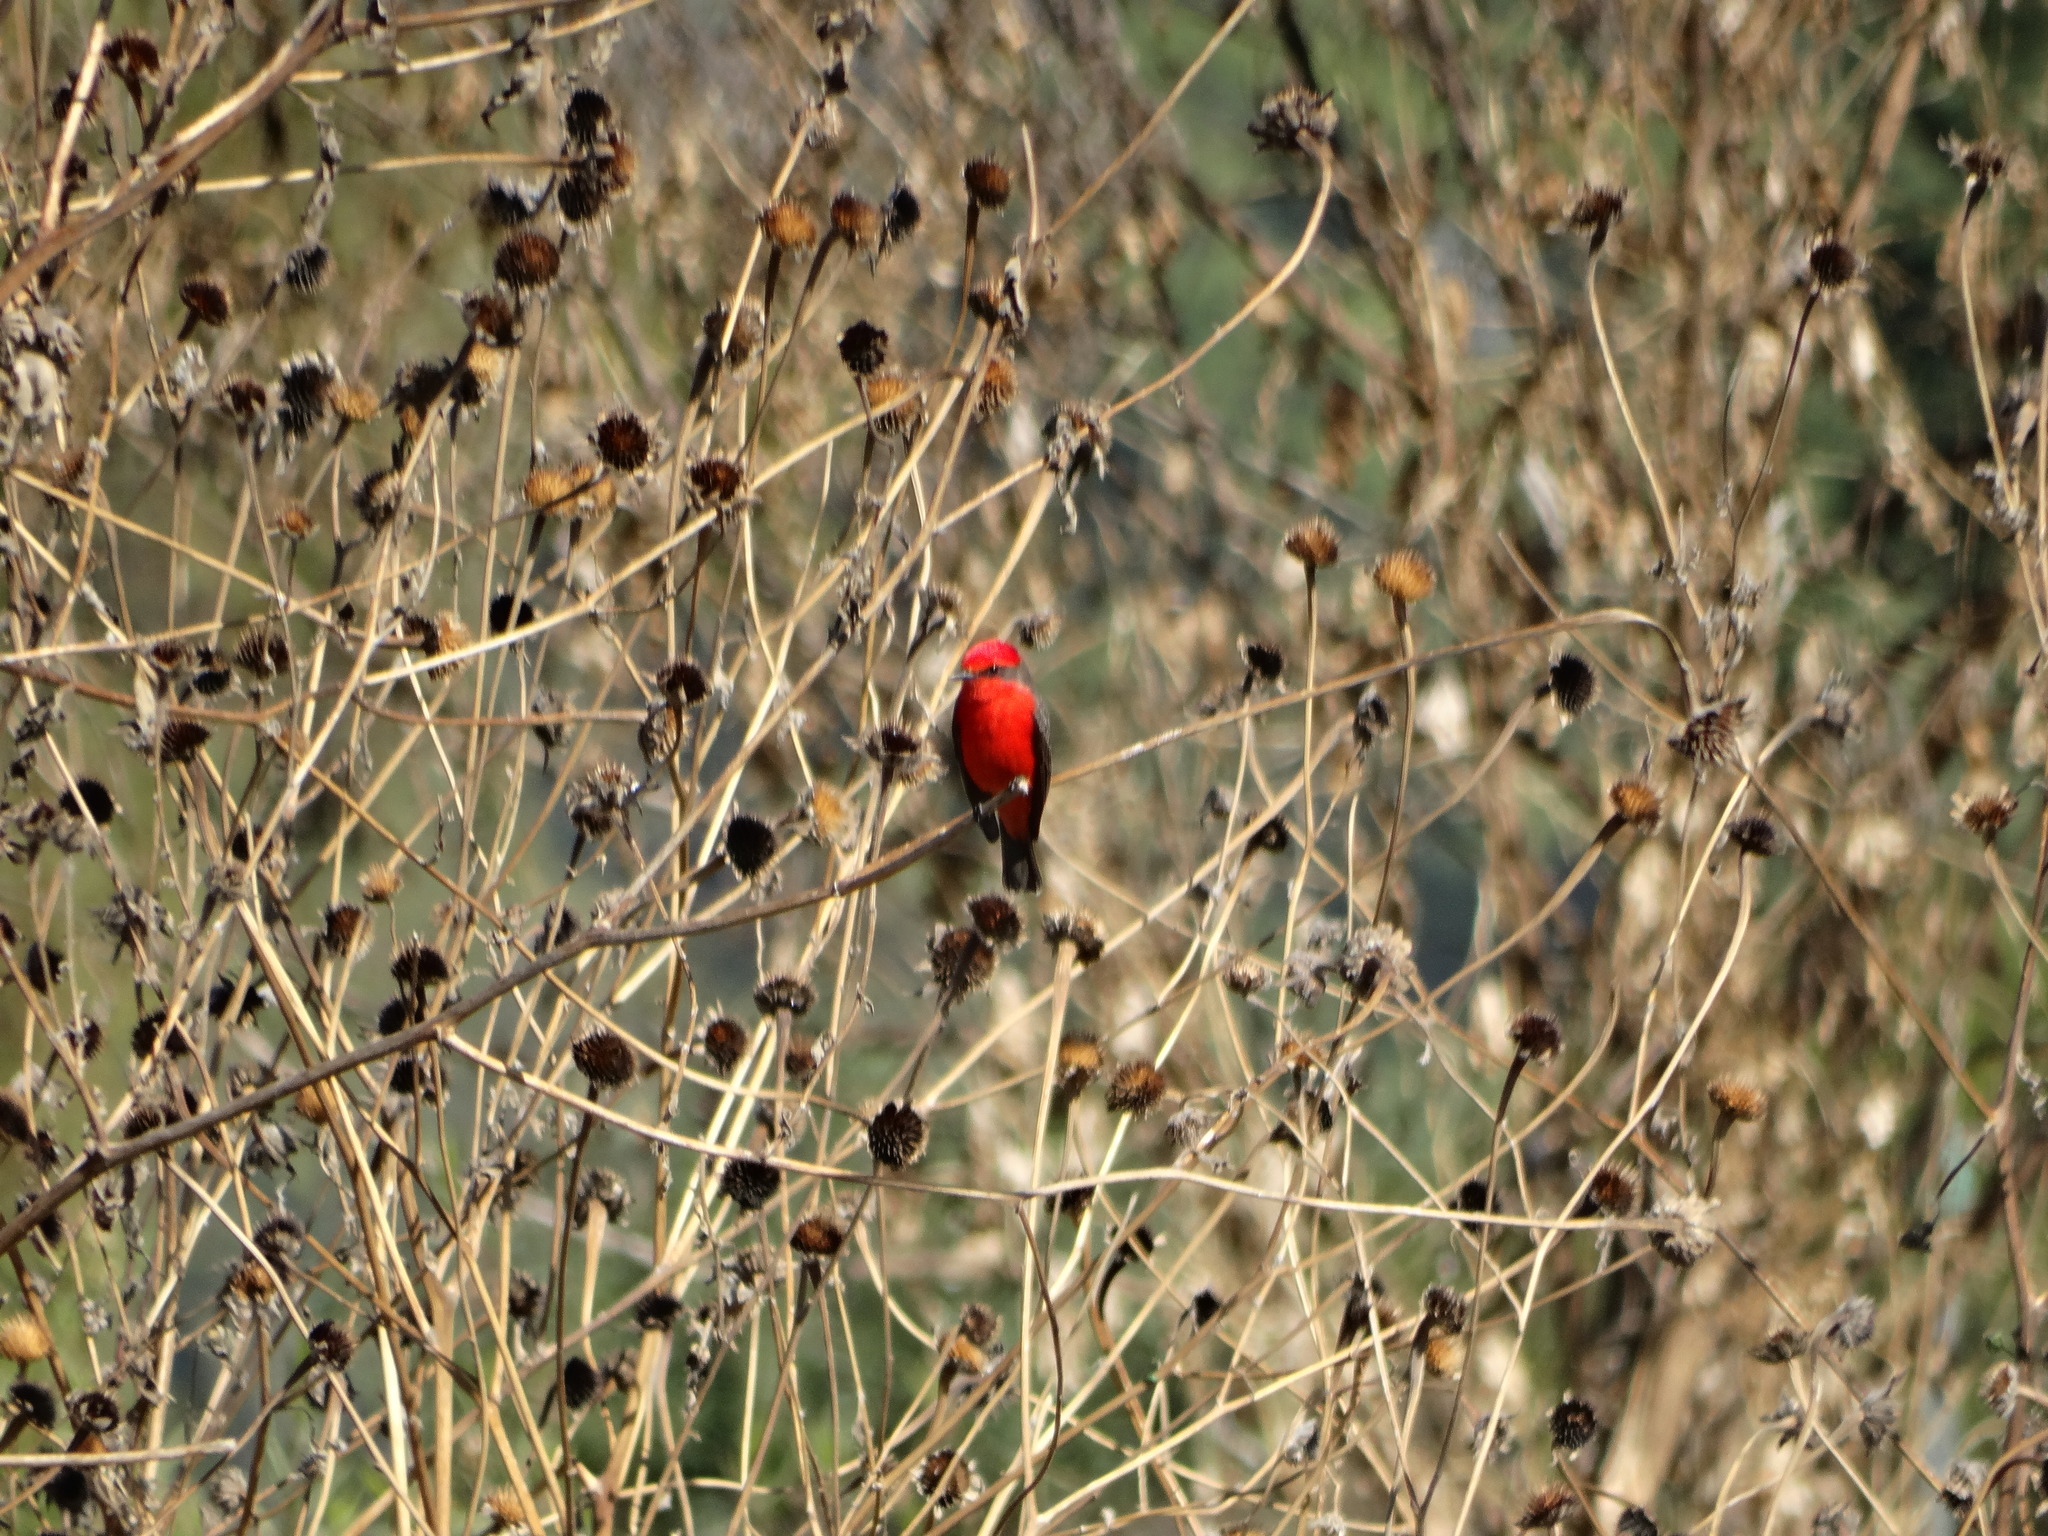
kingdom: Animalia
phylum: Chordata
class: Aves
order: Passeriformes
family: Tyrannidae
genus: Pyrocephalus
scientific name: Pyrocephalus rubinus
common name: Vermilion flycatcher
